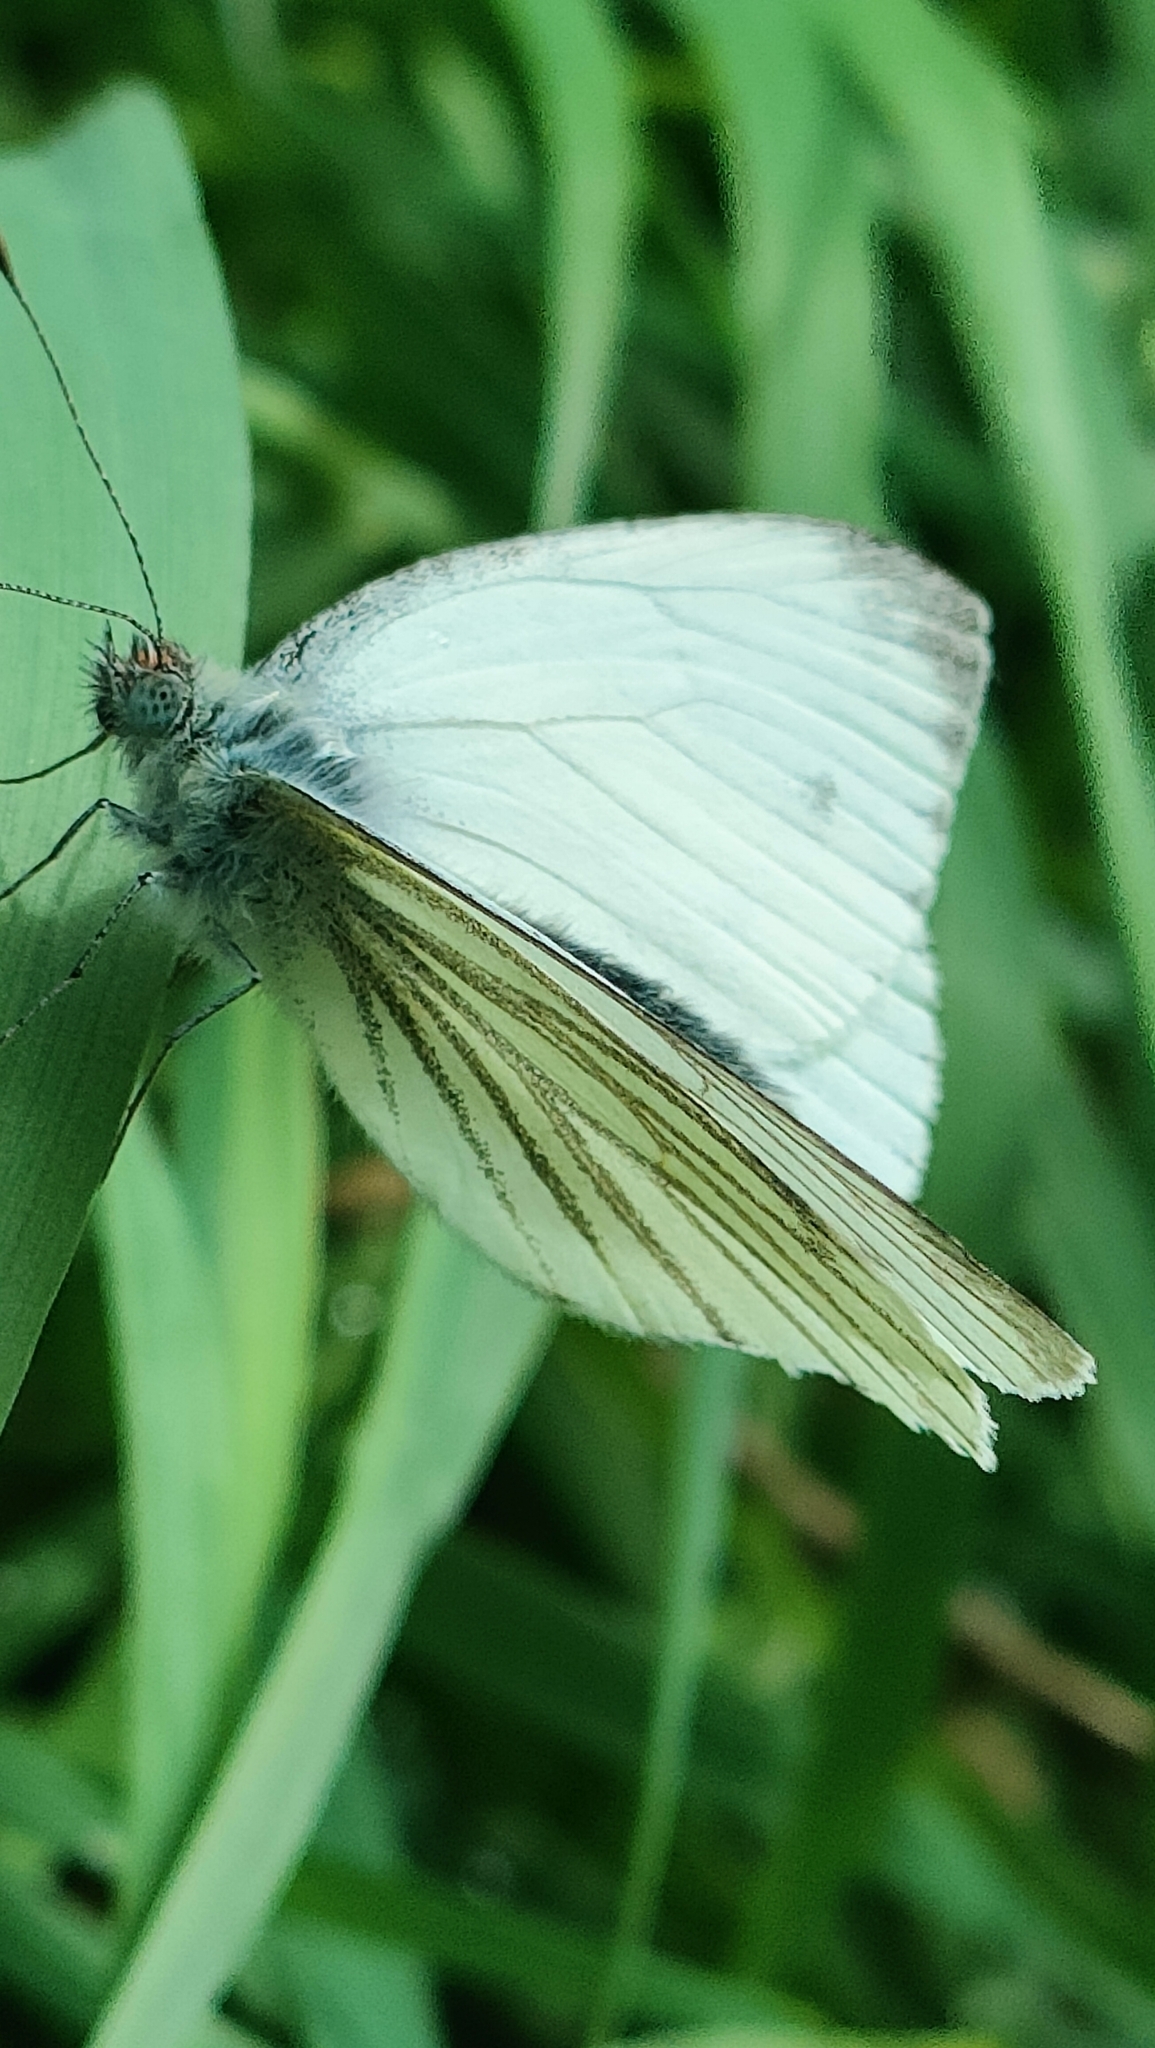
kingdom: Animalia
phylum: Arthropoda
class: Insecta
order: Lepidoptera
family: Pieridae
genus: Pieris
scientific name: Pieris napi
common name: Green-veined white
